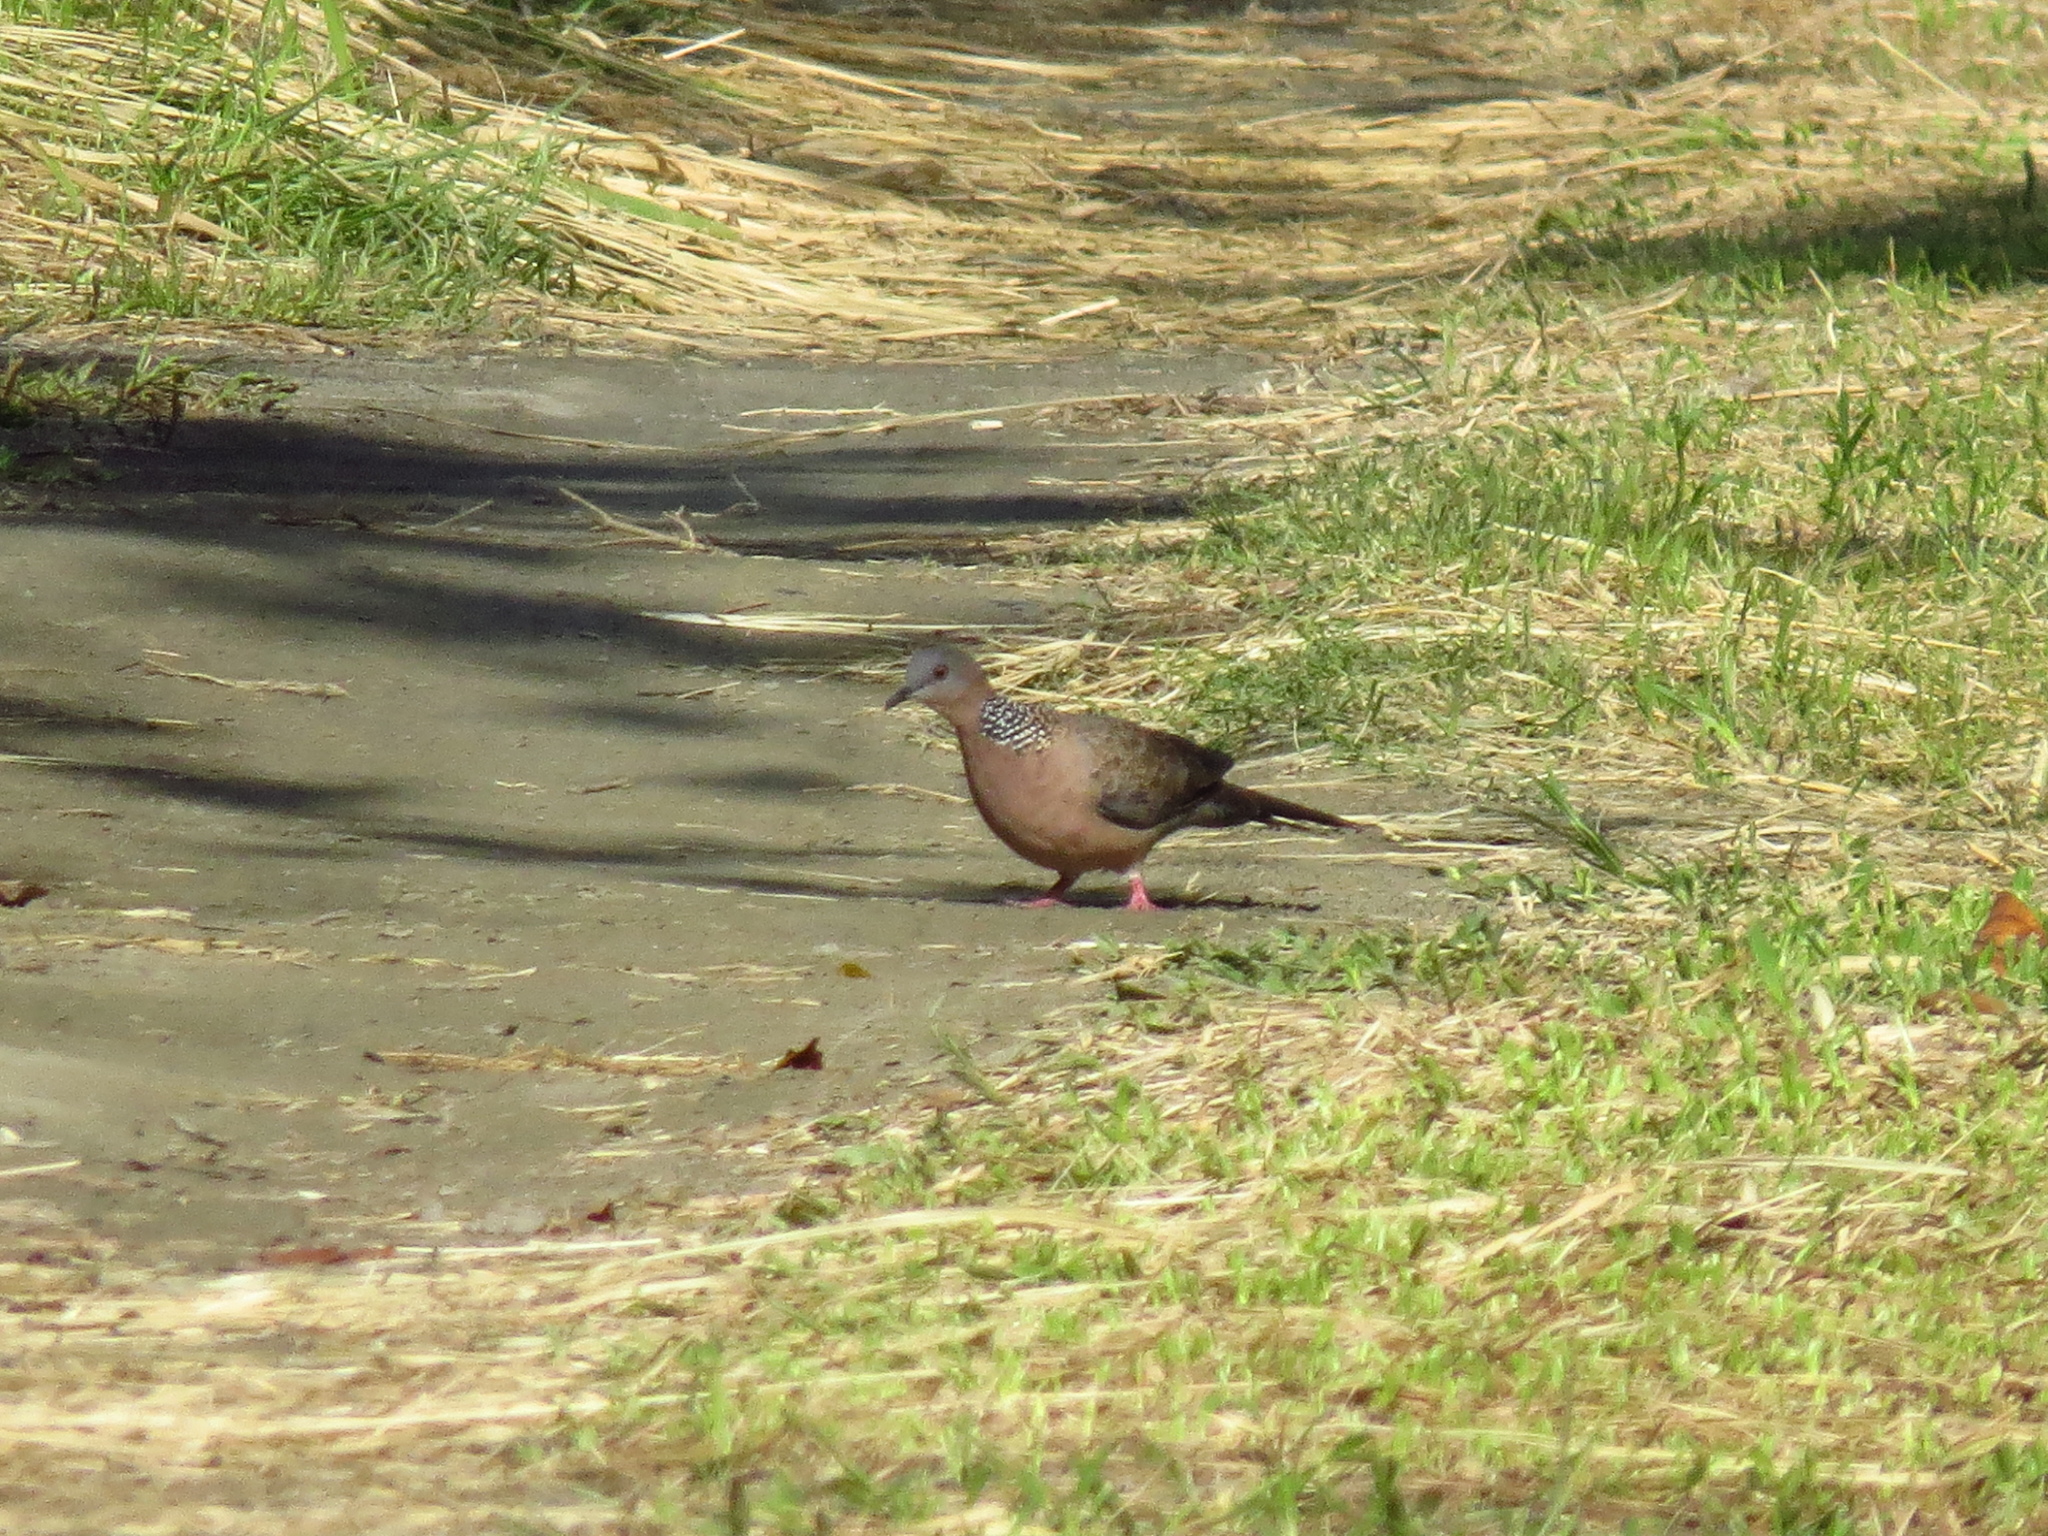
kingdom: Animalia
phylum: Chordata
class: Aves
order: Columbiformes
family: Columbidae
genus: Spilopelia
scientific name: Spilopelia chinensis
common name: Spotted dove
